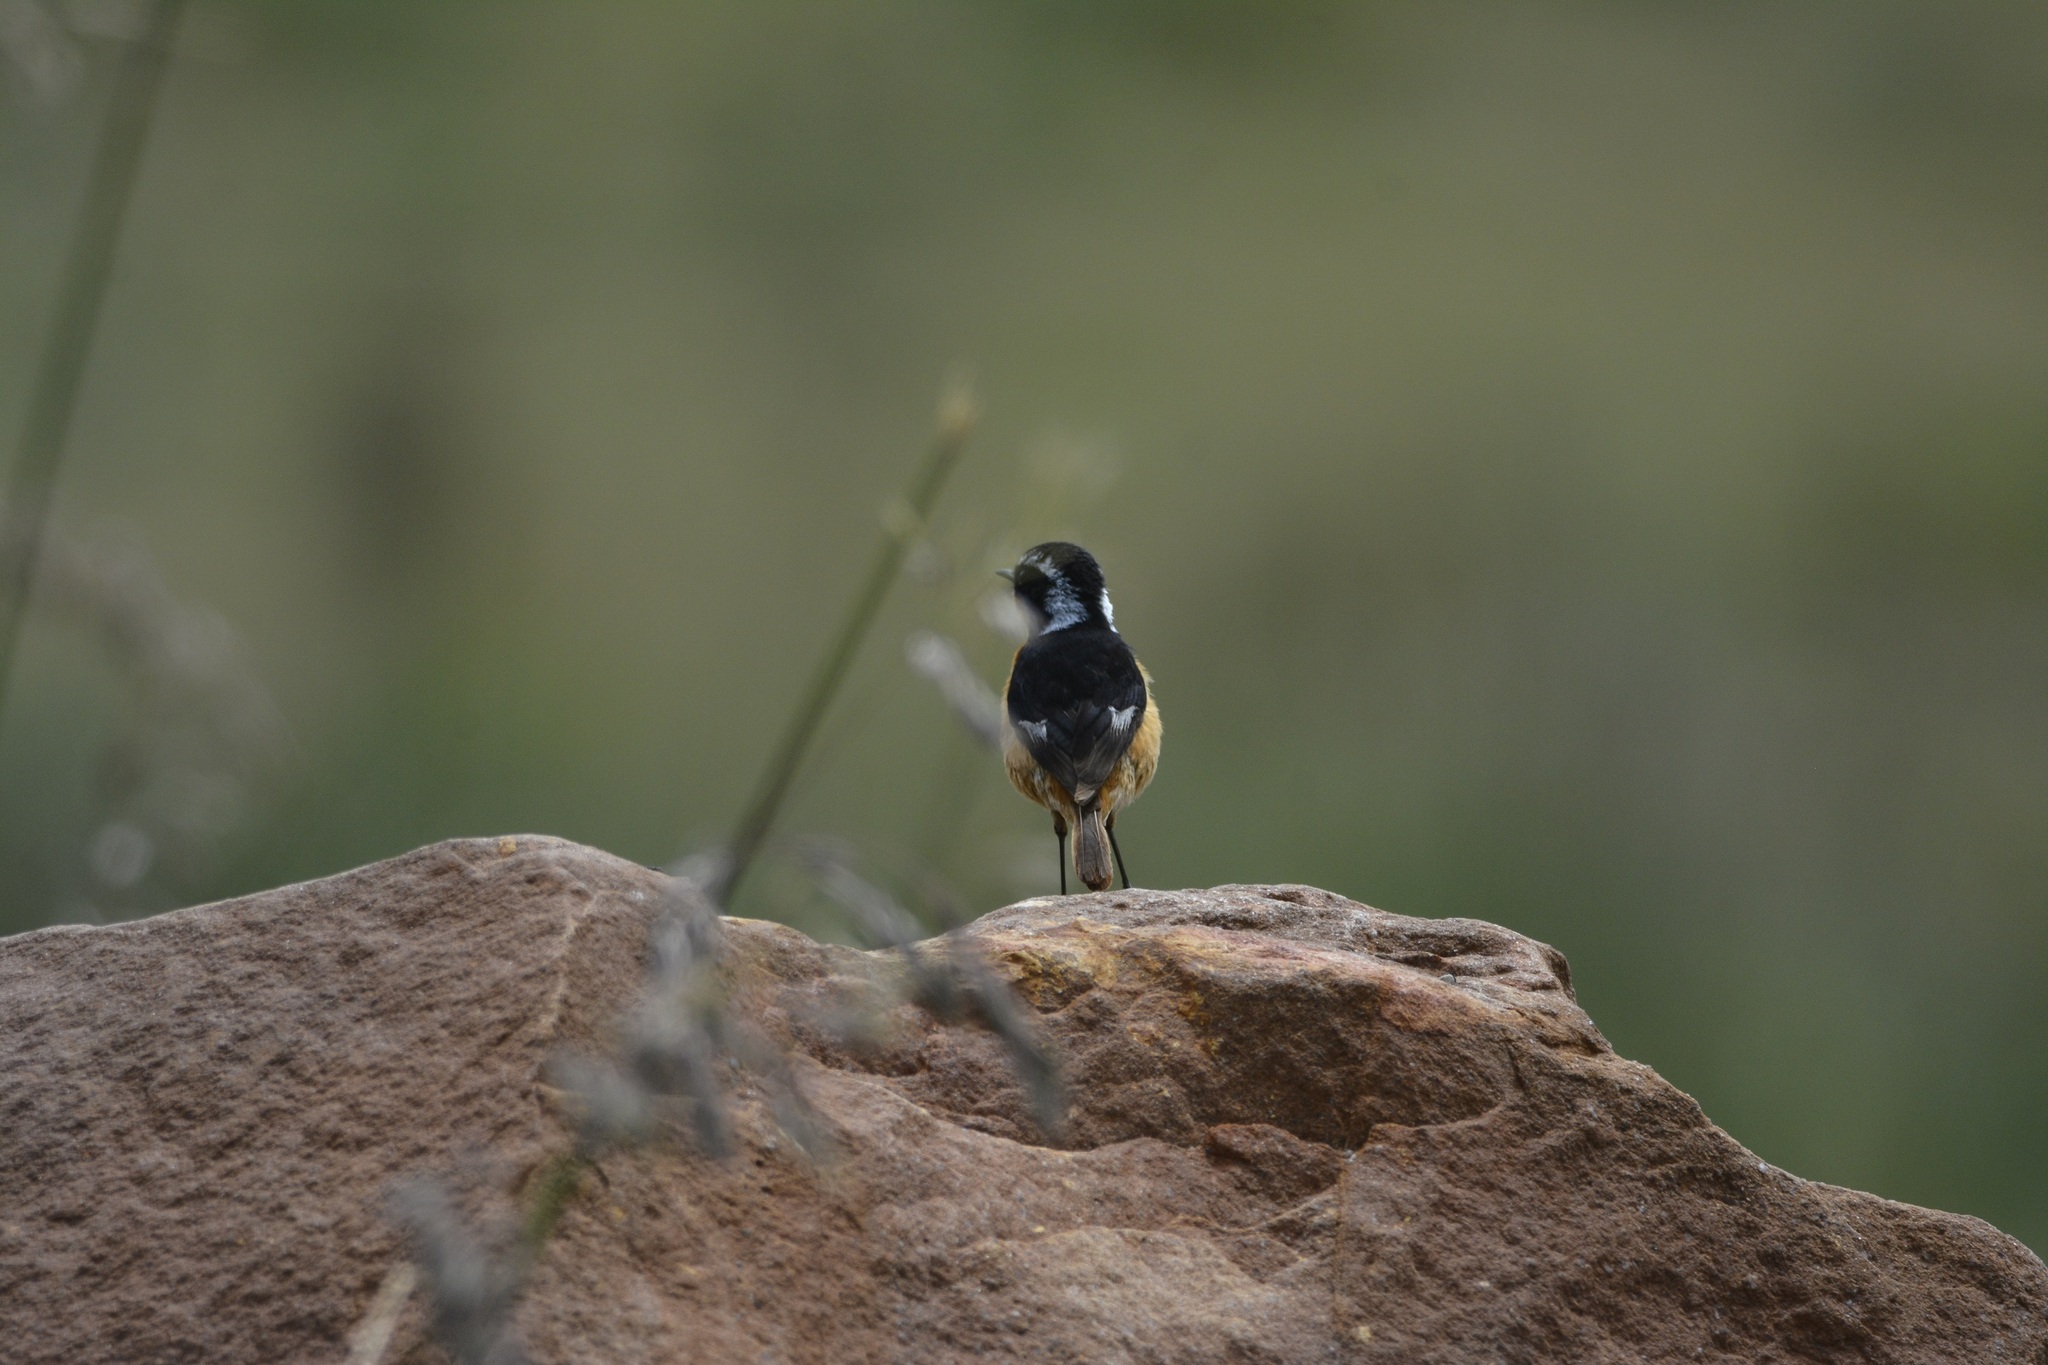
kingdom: Animalia
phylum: Chordata
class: Aves
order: Passeriformes
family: Muscicapidae
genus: Phoenicurus
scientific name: Phoenicurus moussieri
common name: Moussier's redstart
